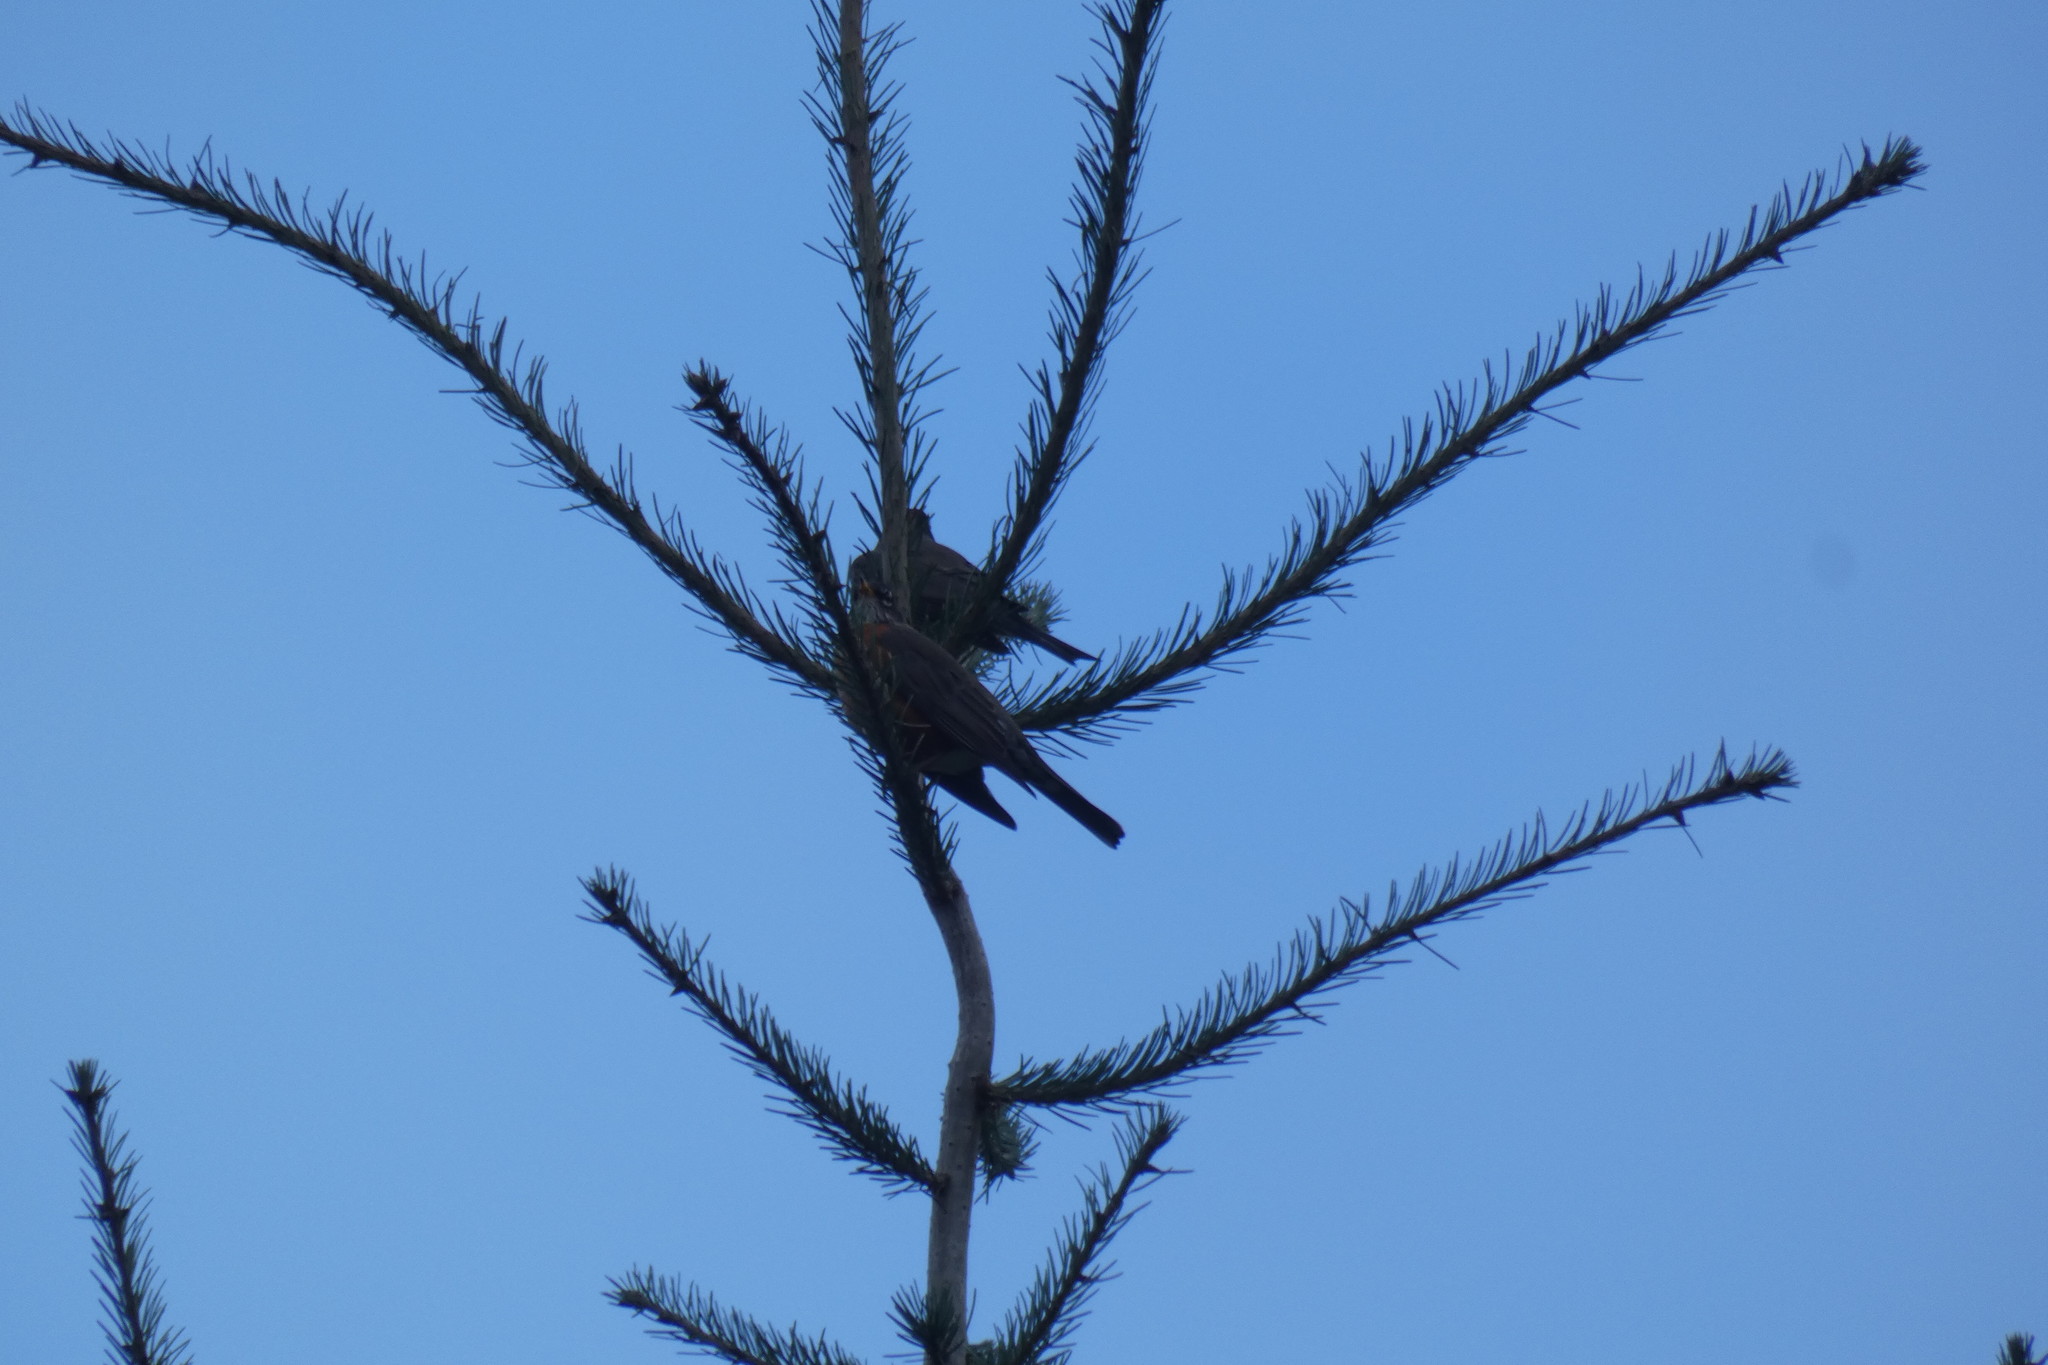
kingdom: Animalia
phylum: Chordata
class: Aves
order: Passeriformes
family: Turdidae
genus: Turdus
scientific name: Turdus migratorius
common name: American robin
